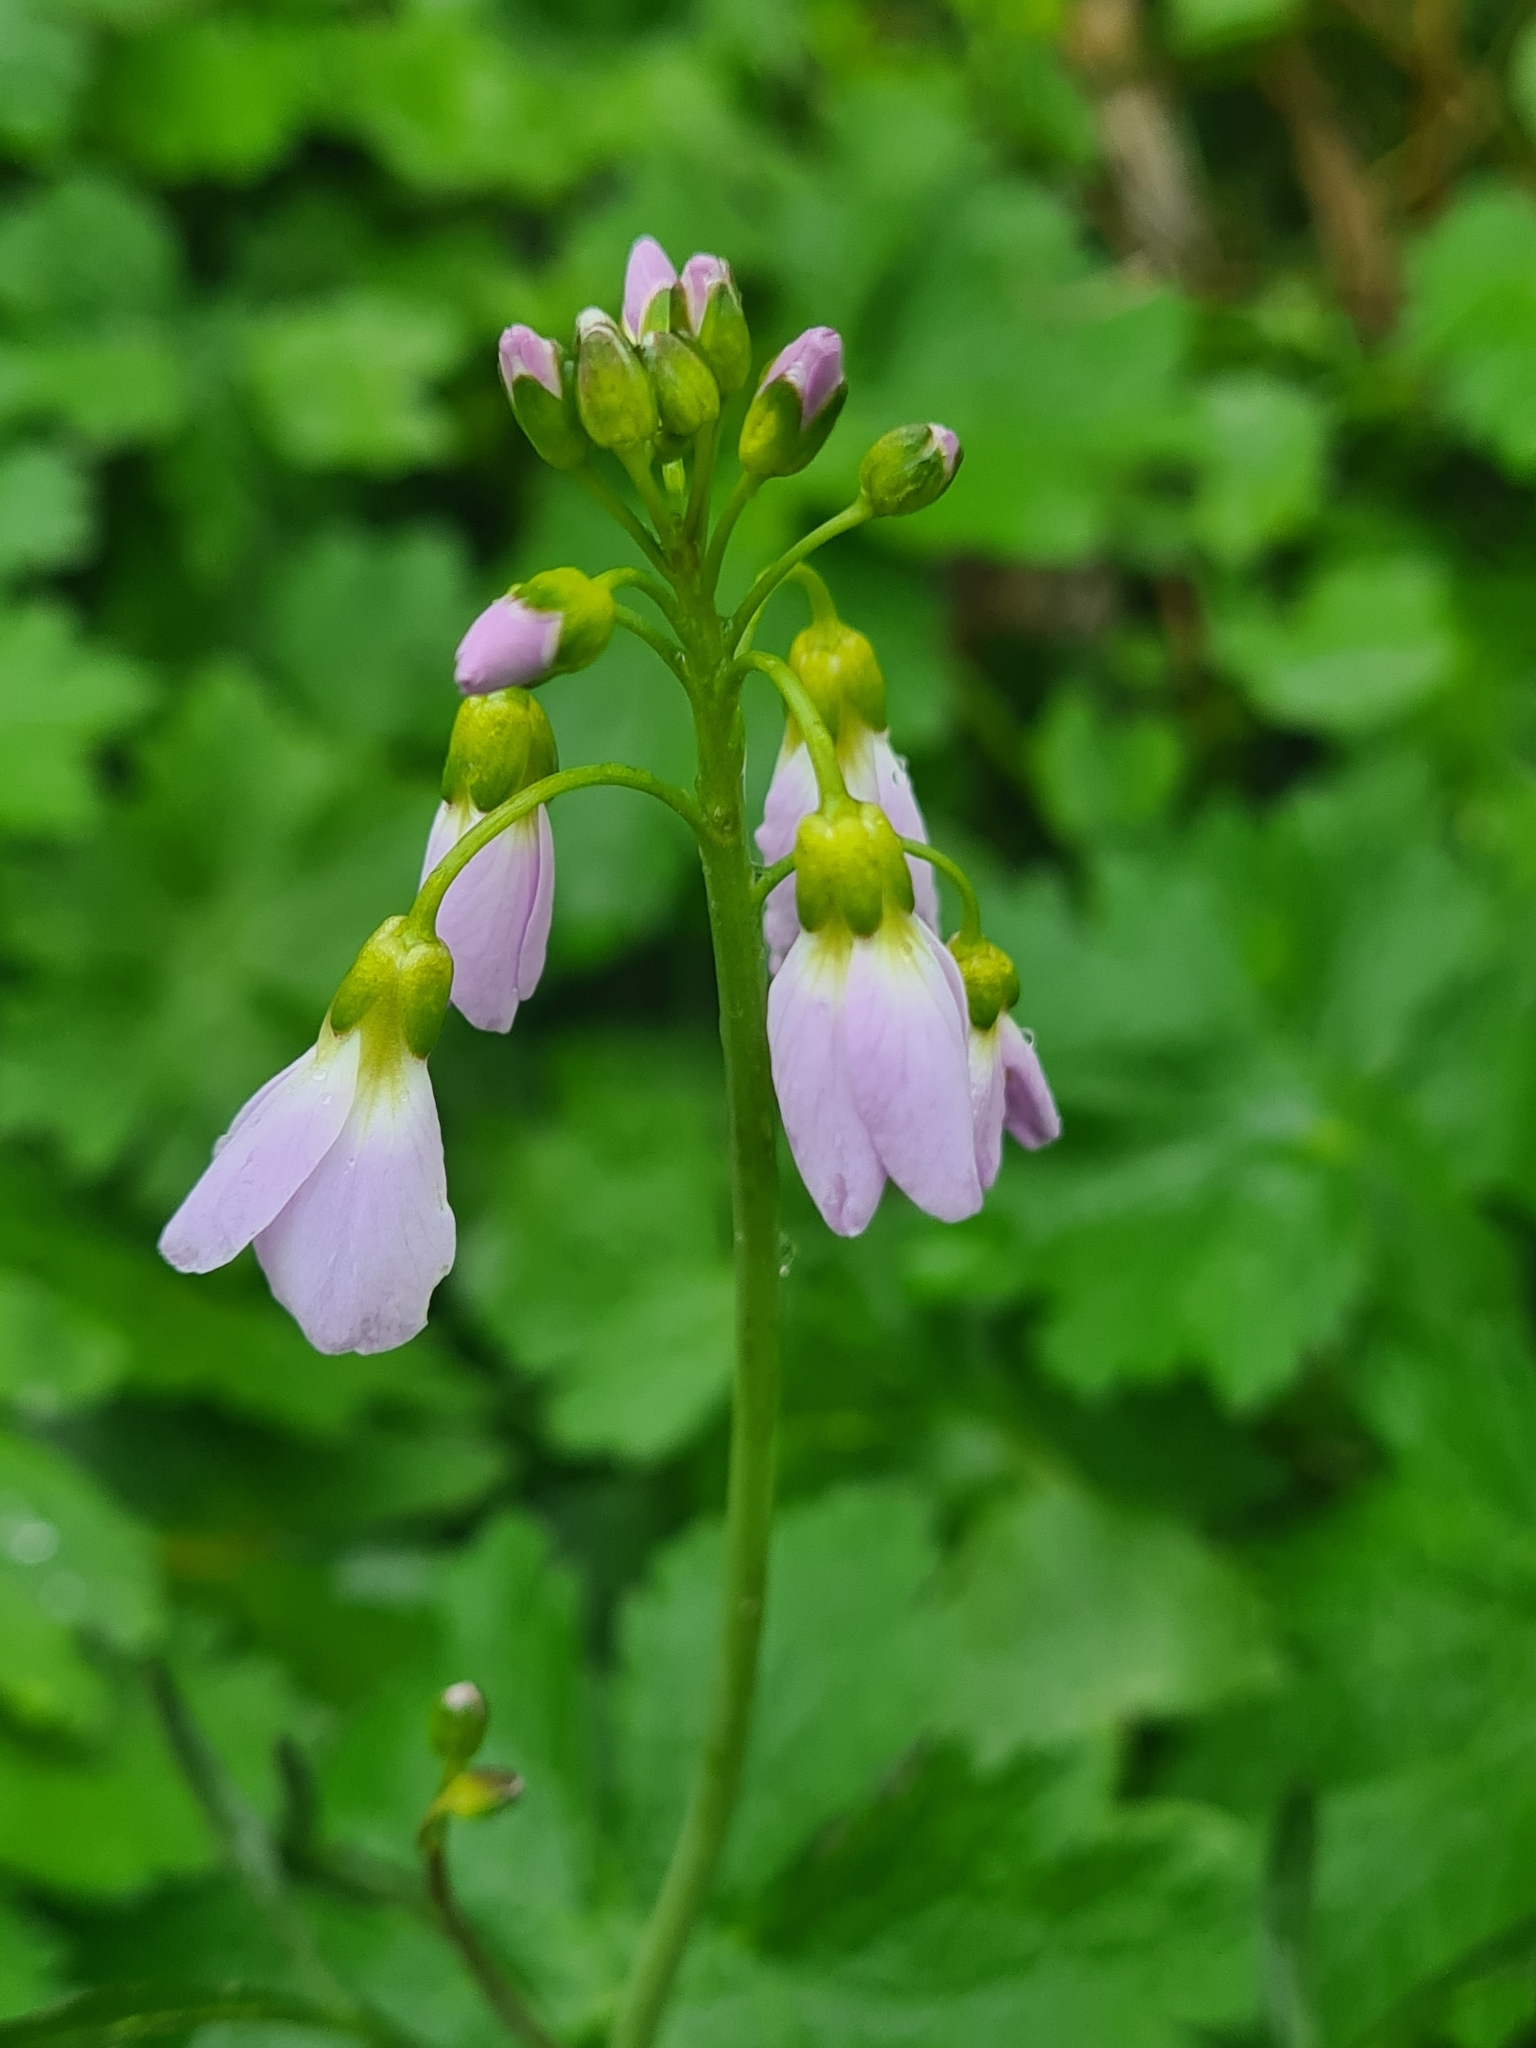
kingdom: Plantae
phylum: Tracheophyta
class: Magnoliopsida
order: Brassicales
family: Brassicaceae
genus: Cardamine
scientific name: Cardamine pratensis
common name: Cuckoo flower
